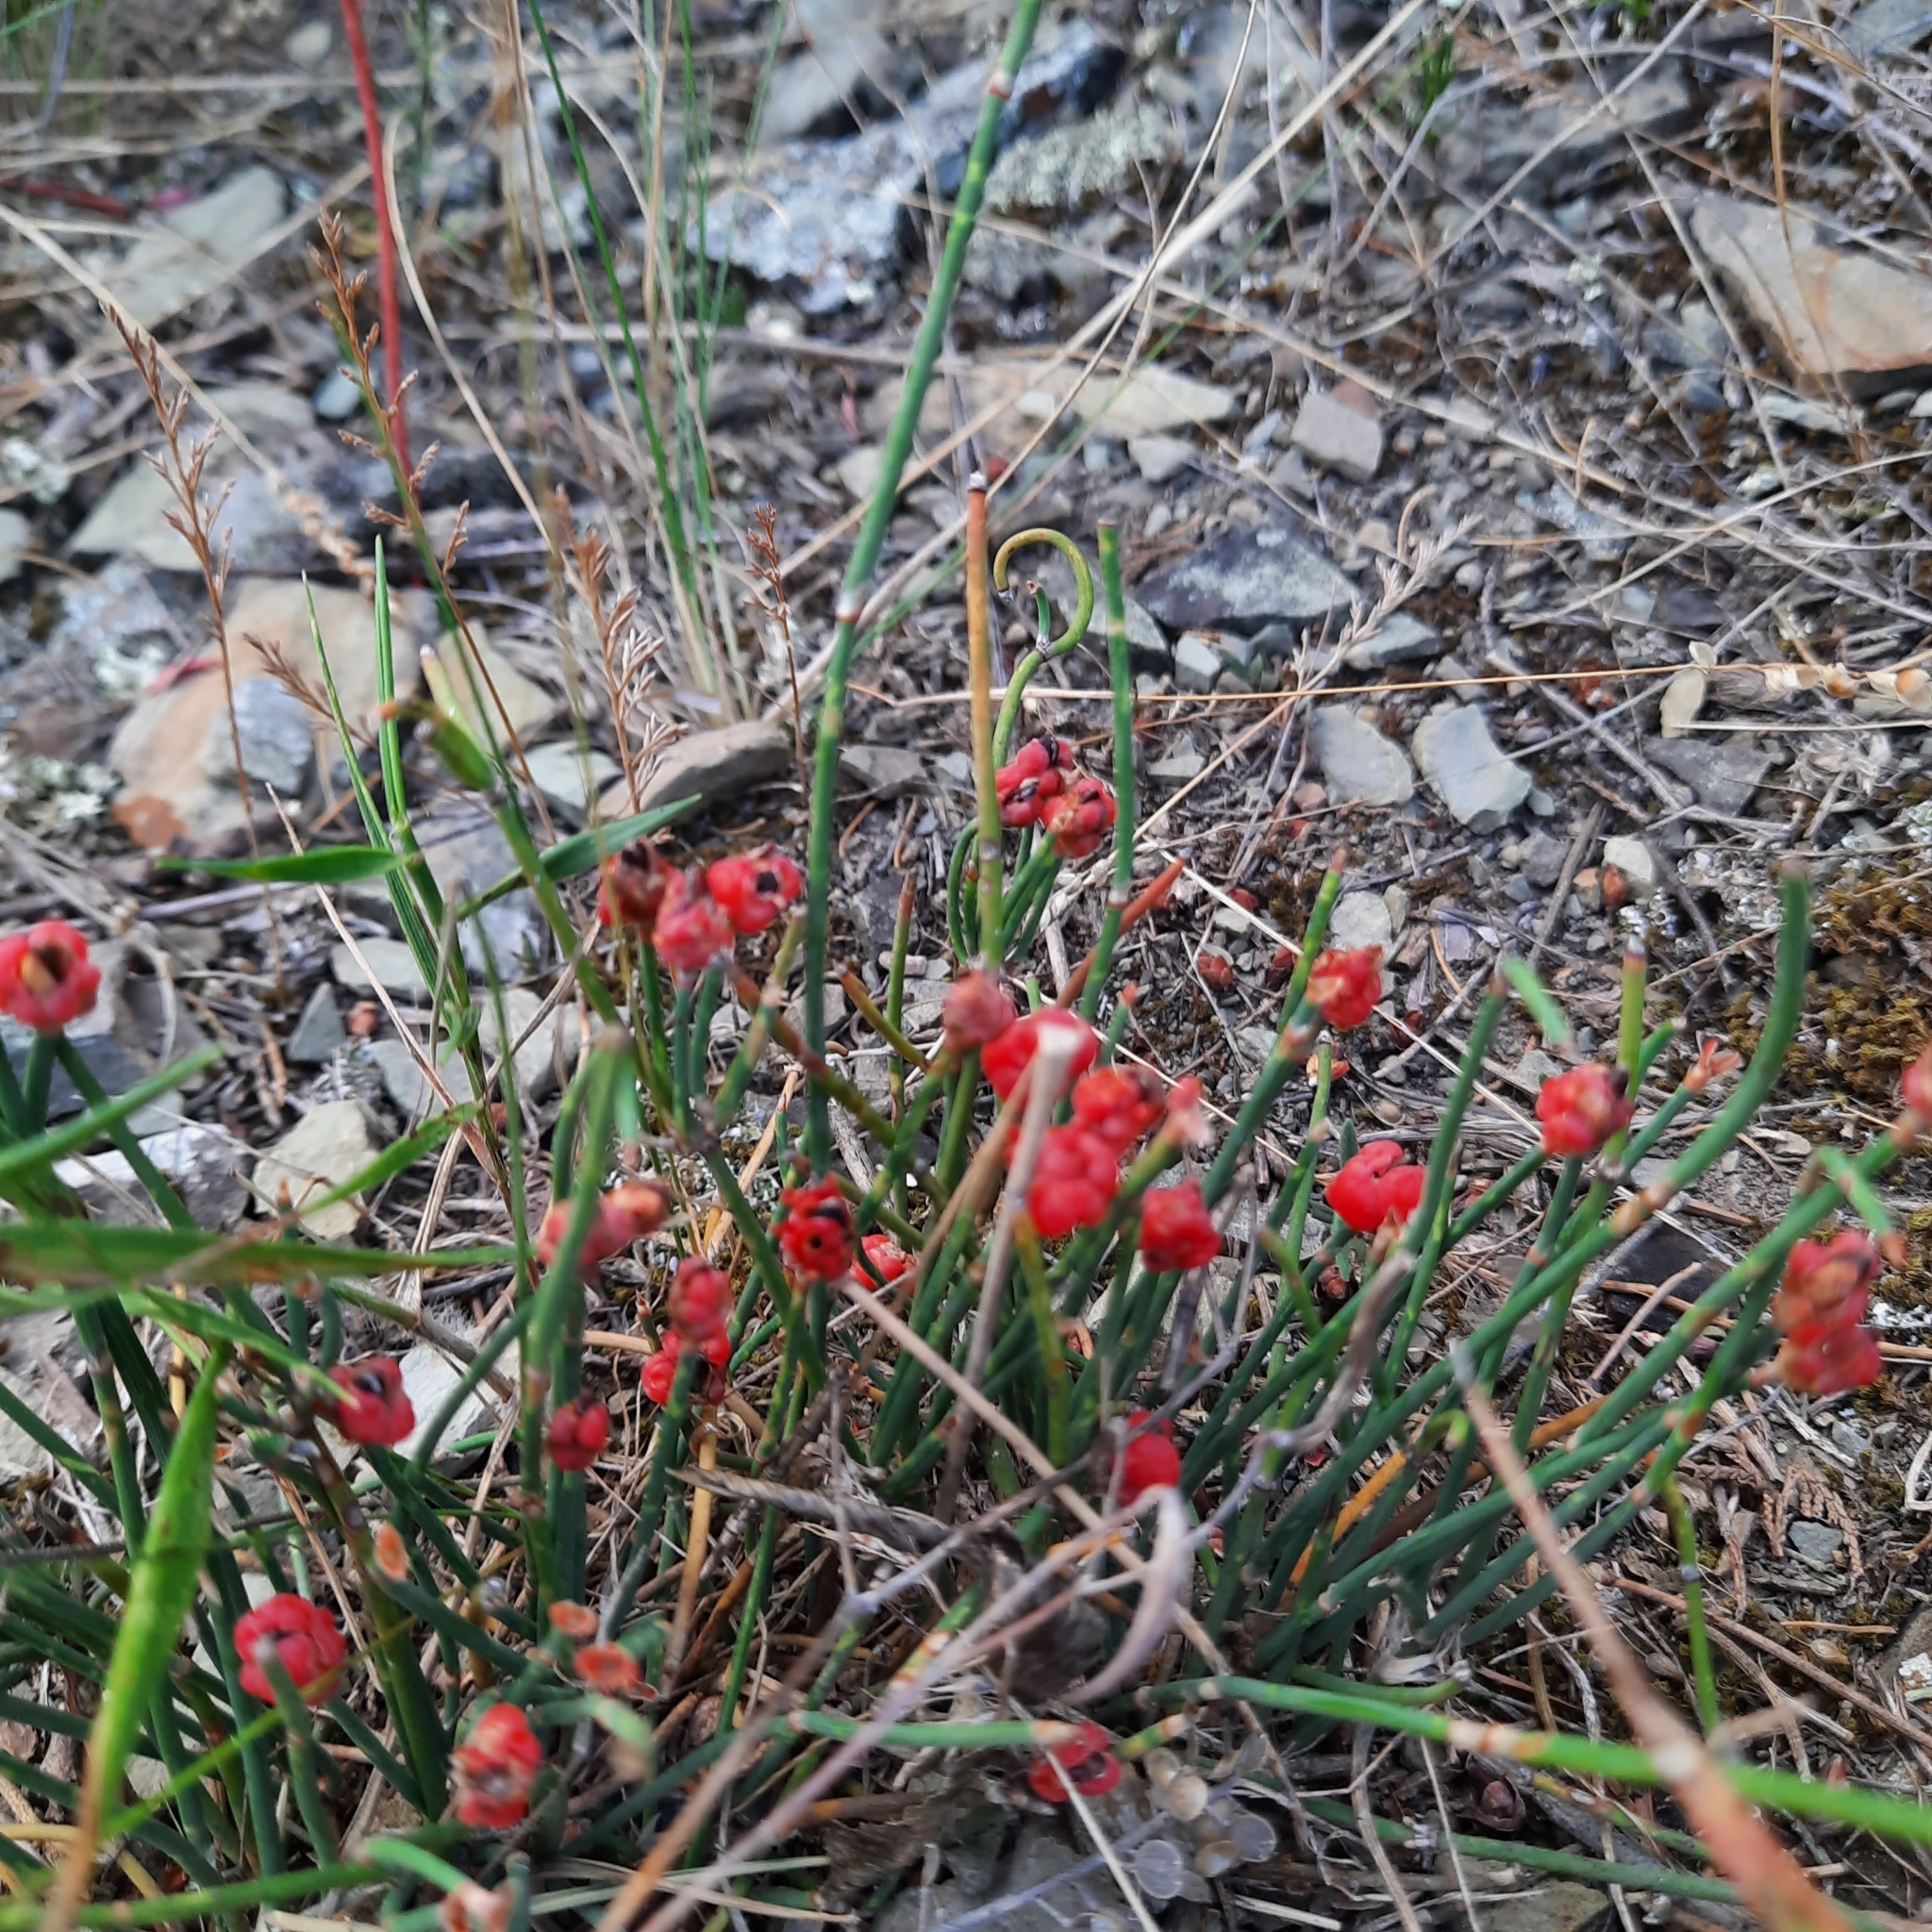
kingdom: Plantae
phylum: Tracheophyta
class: Gnetopsida
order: Ephedrales
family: Ephedraceae
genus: Ephedra
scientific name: Ephedra distachya
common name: Sea grape
